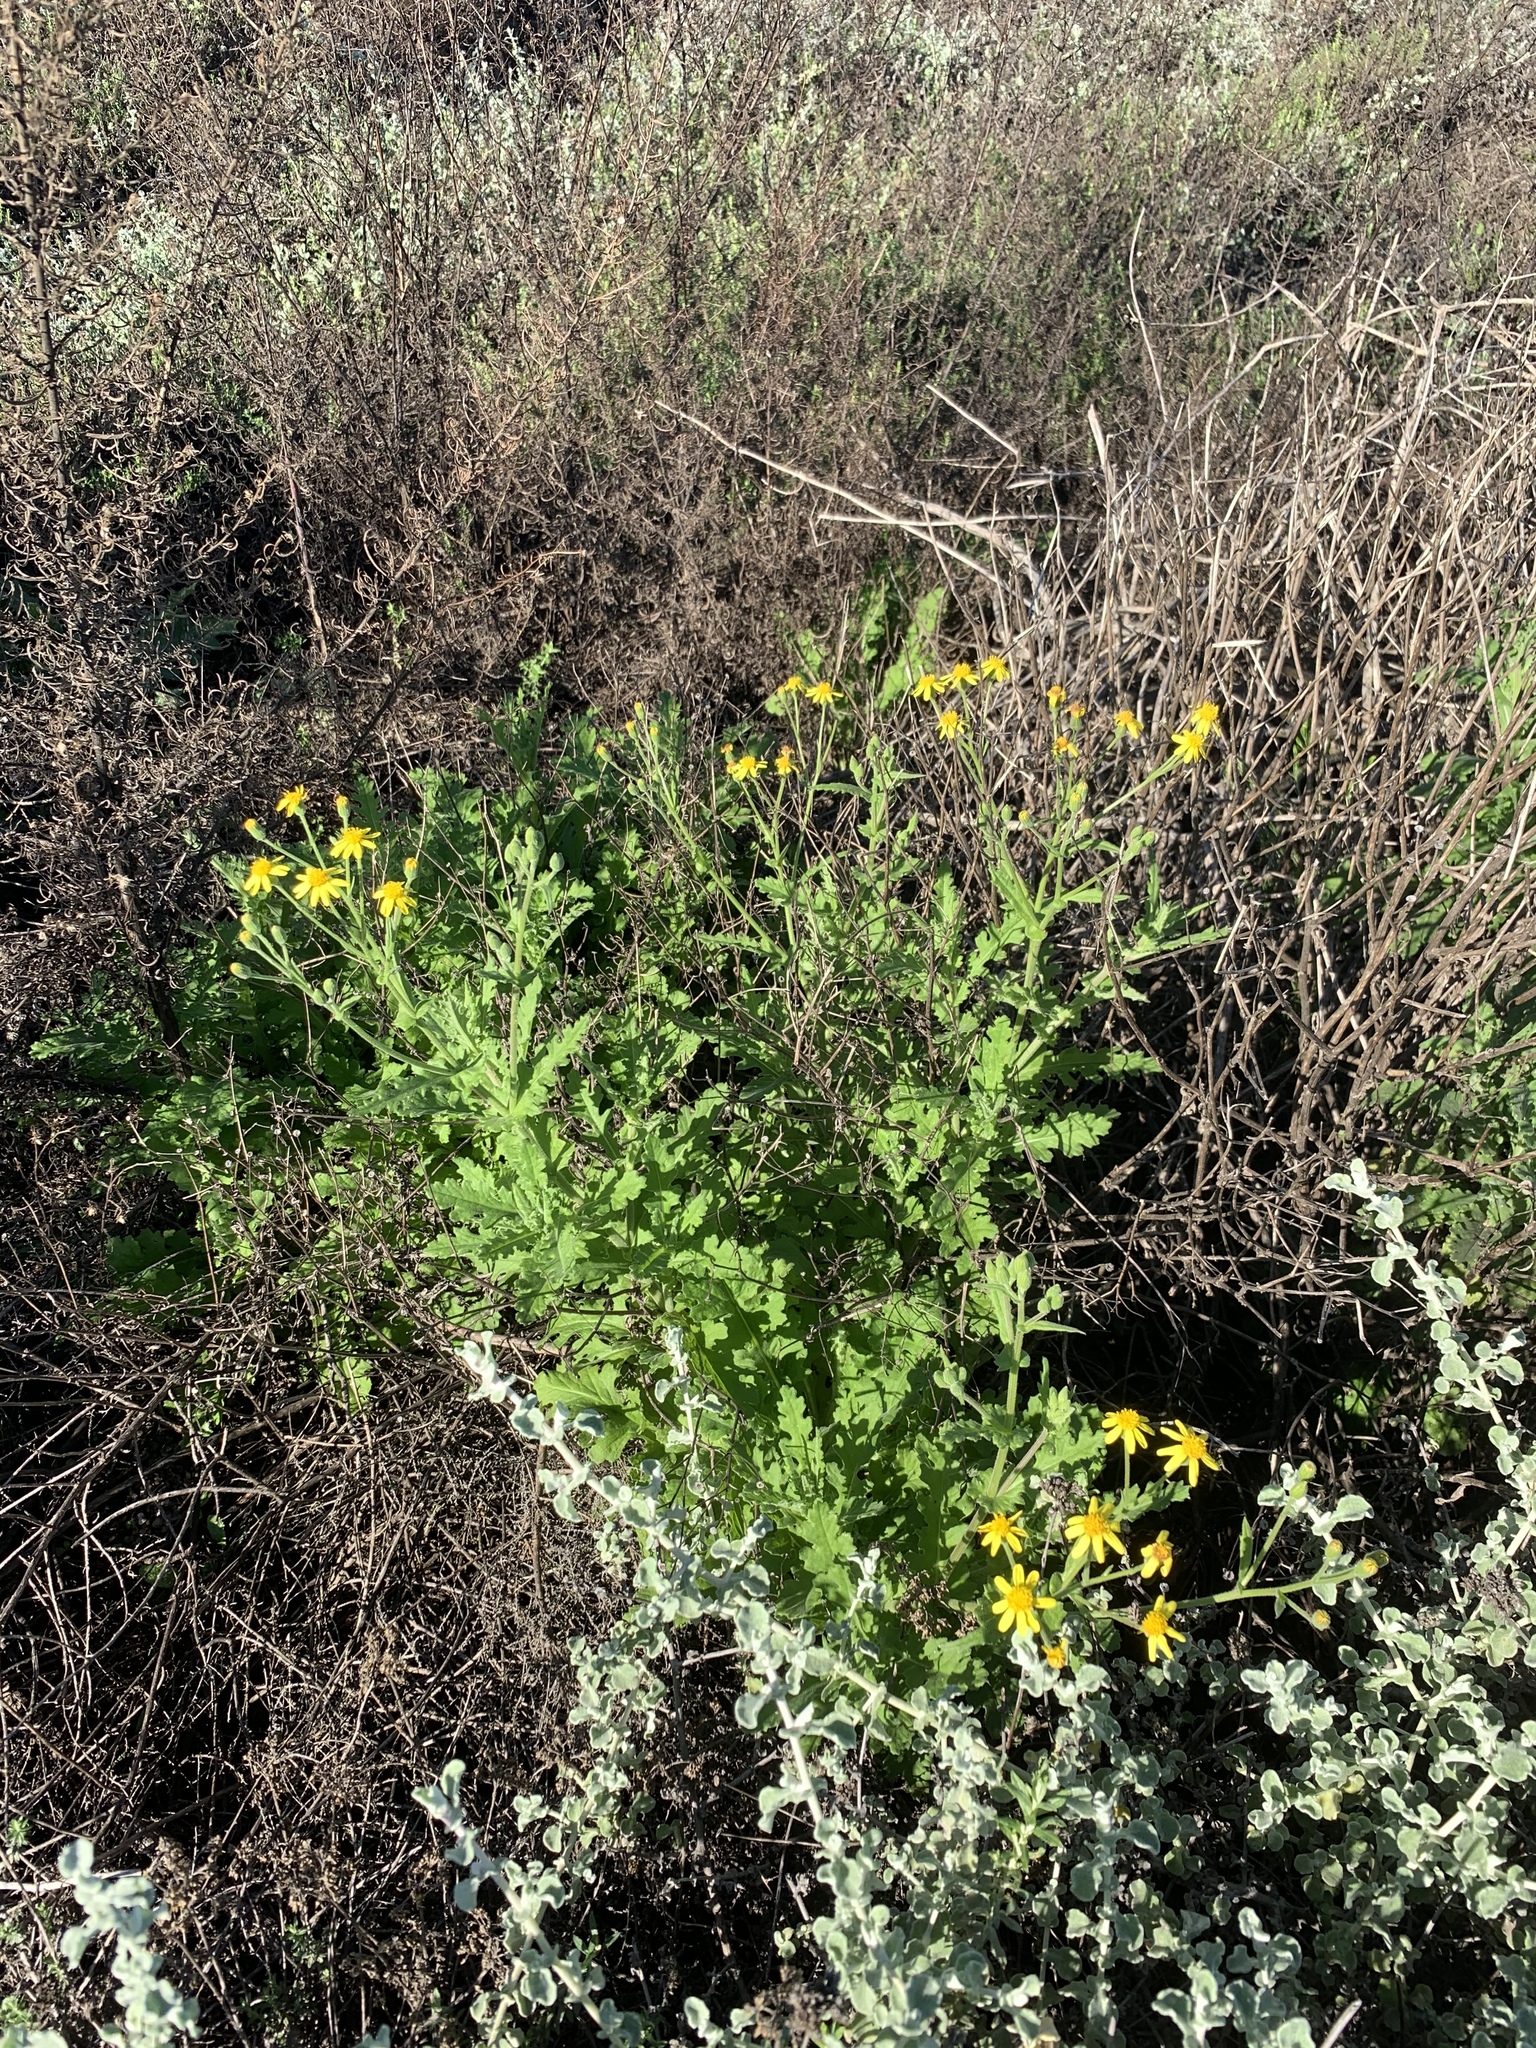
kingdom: Plantae
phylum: Tracheophyta
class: Magnoliopsida
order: Asterales
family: Asteraceae
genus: Senecio
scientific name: Senecio hastatus
